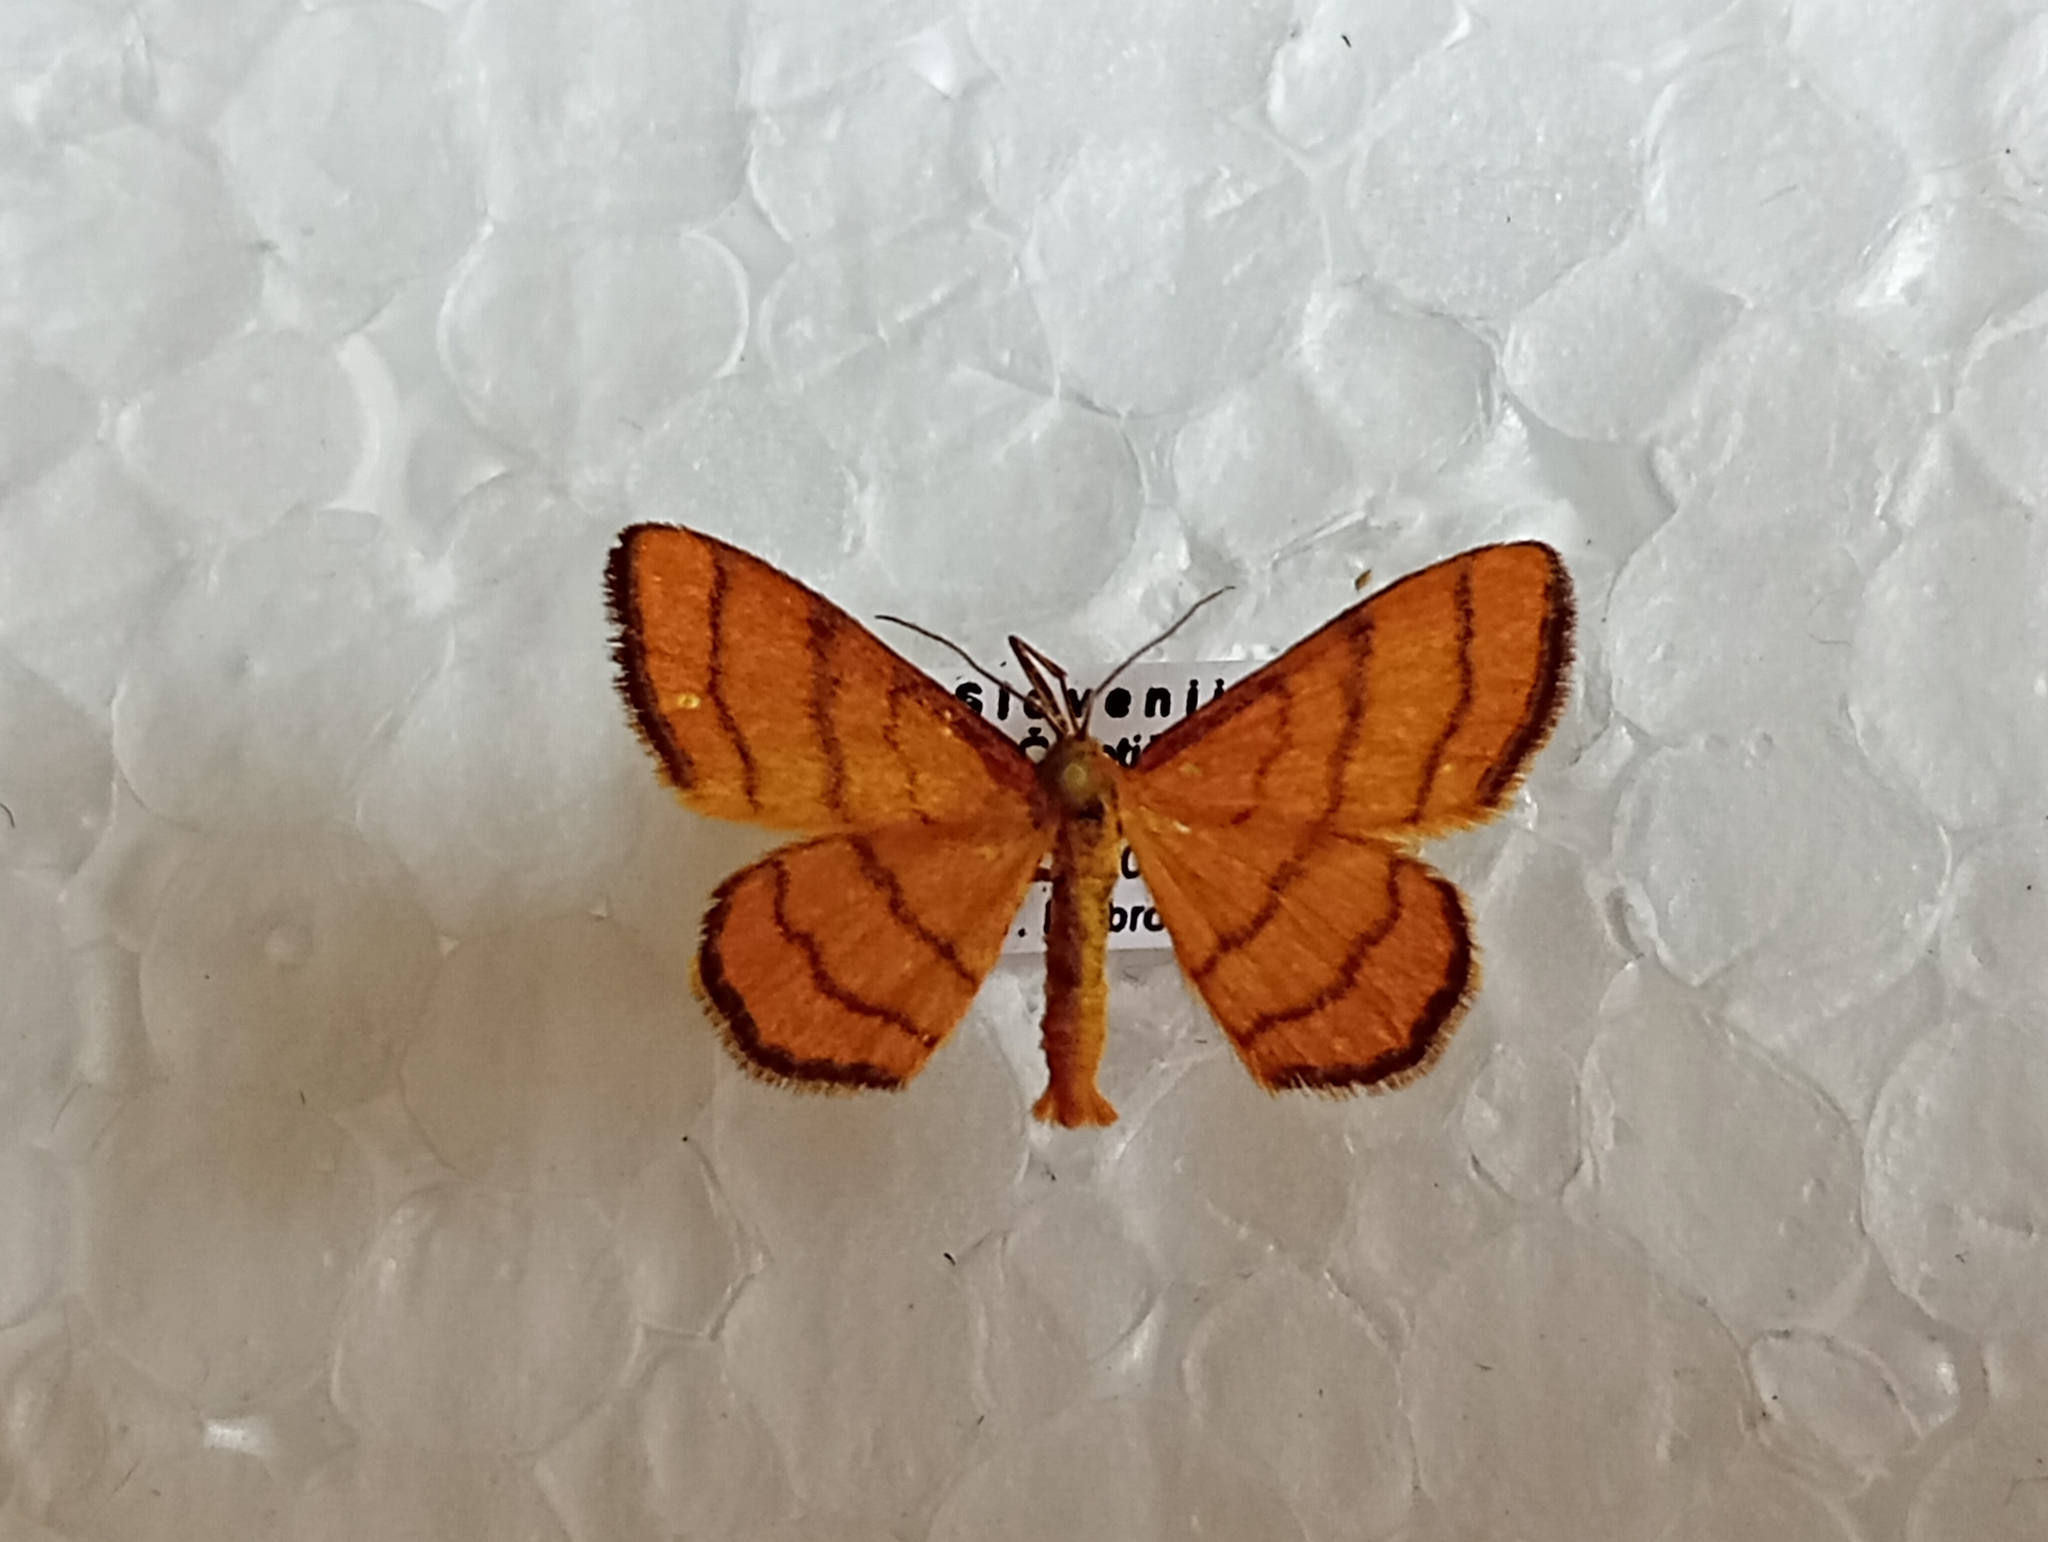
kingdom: Animalia
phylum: Arthropoda
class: Insecta
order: Lepidoptera
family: Geometridae
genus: Idaea
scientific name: Idaea aureolaria
